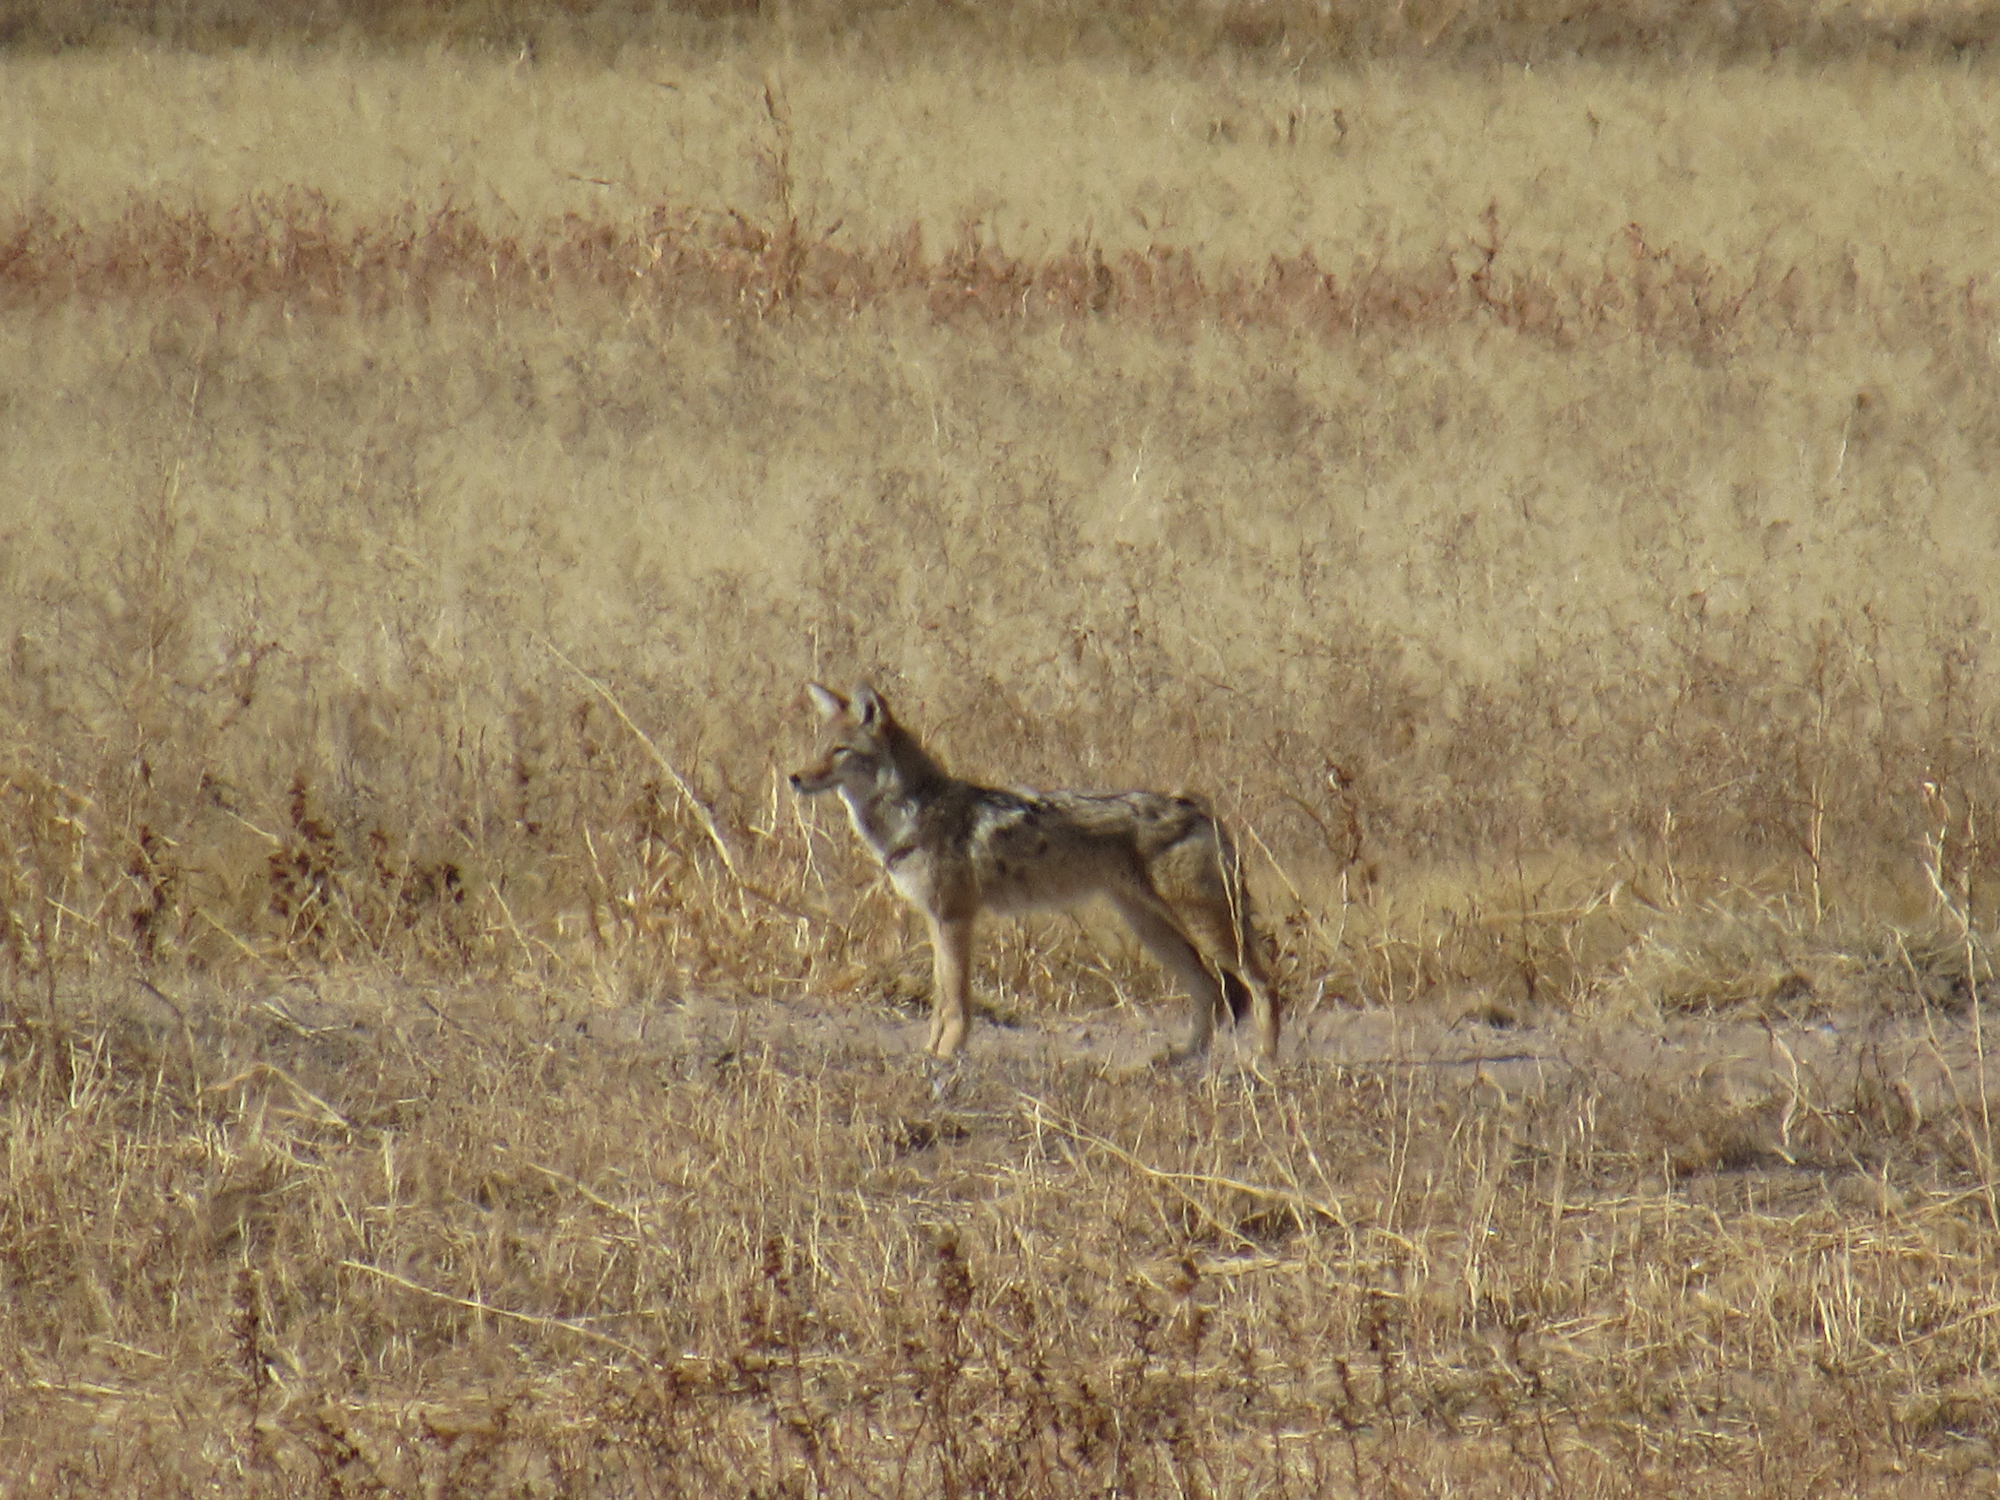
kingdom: Animalia
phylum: Chordata
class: Mammalia
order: Carnivora
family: Canidae
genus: Canis
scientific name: Canis latrans
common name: Coyote
